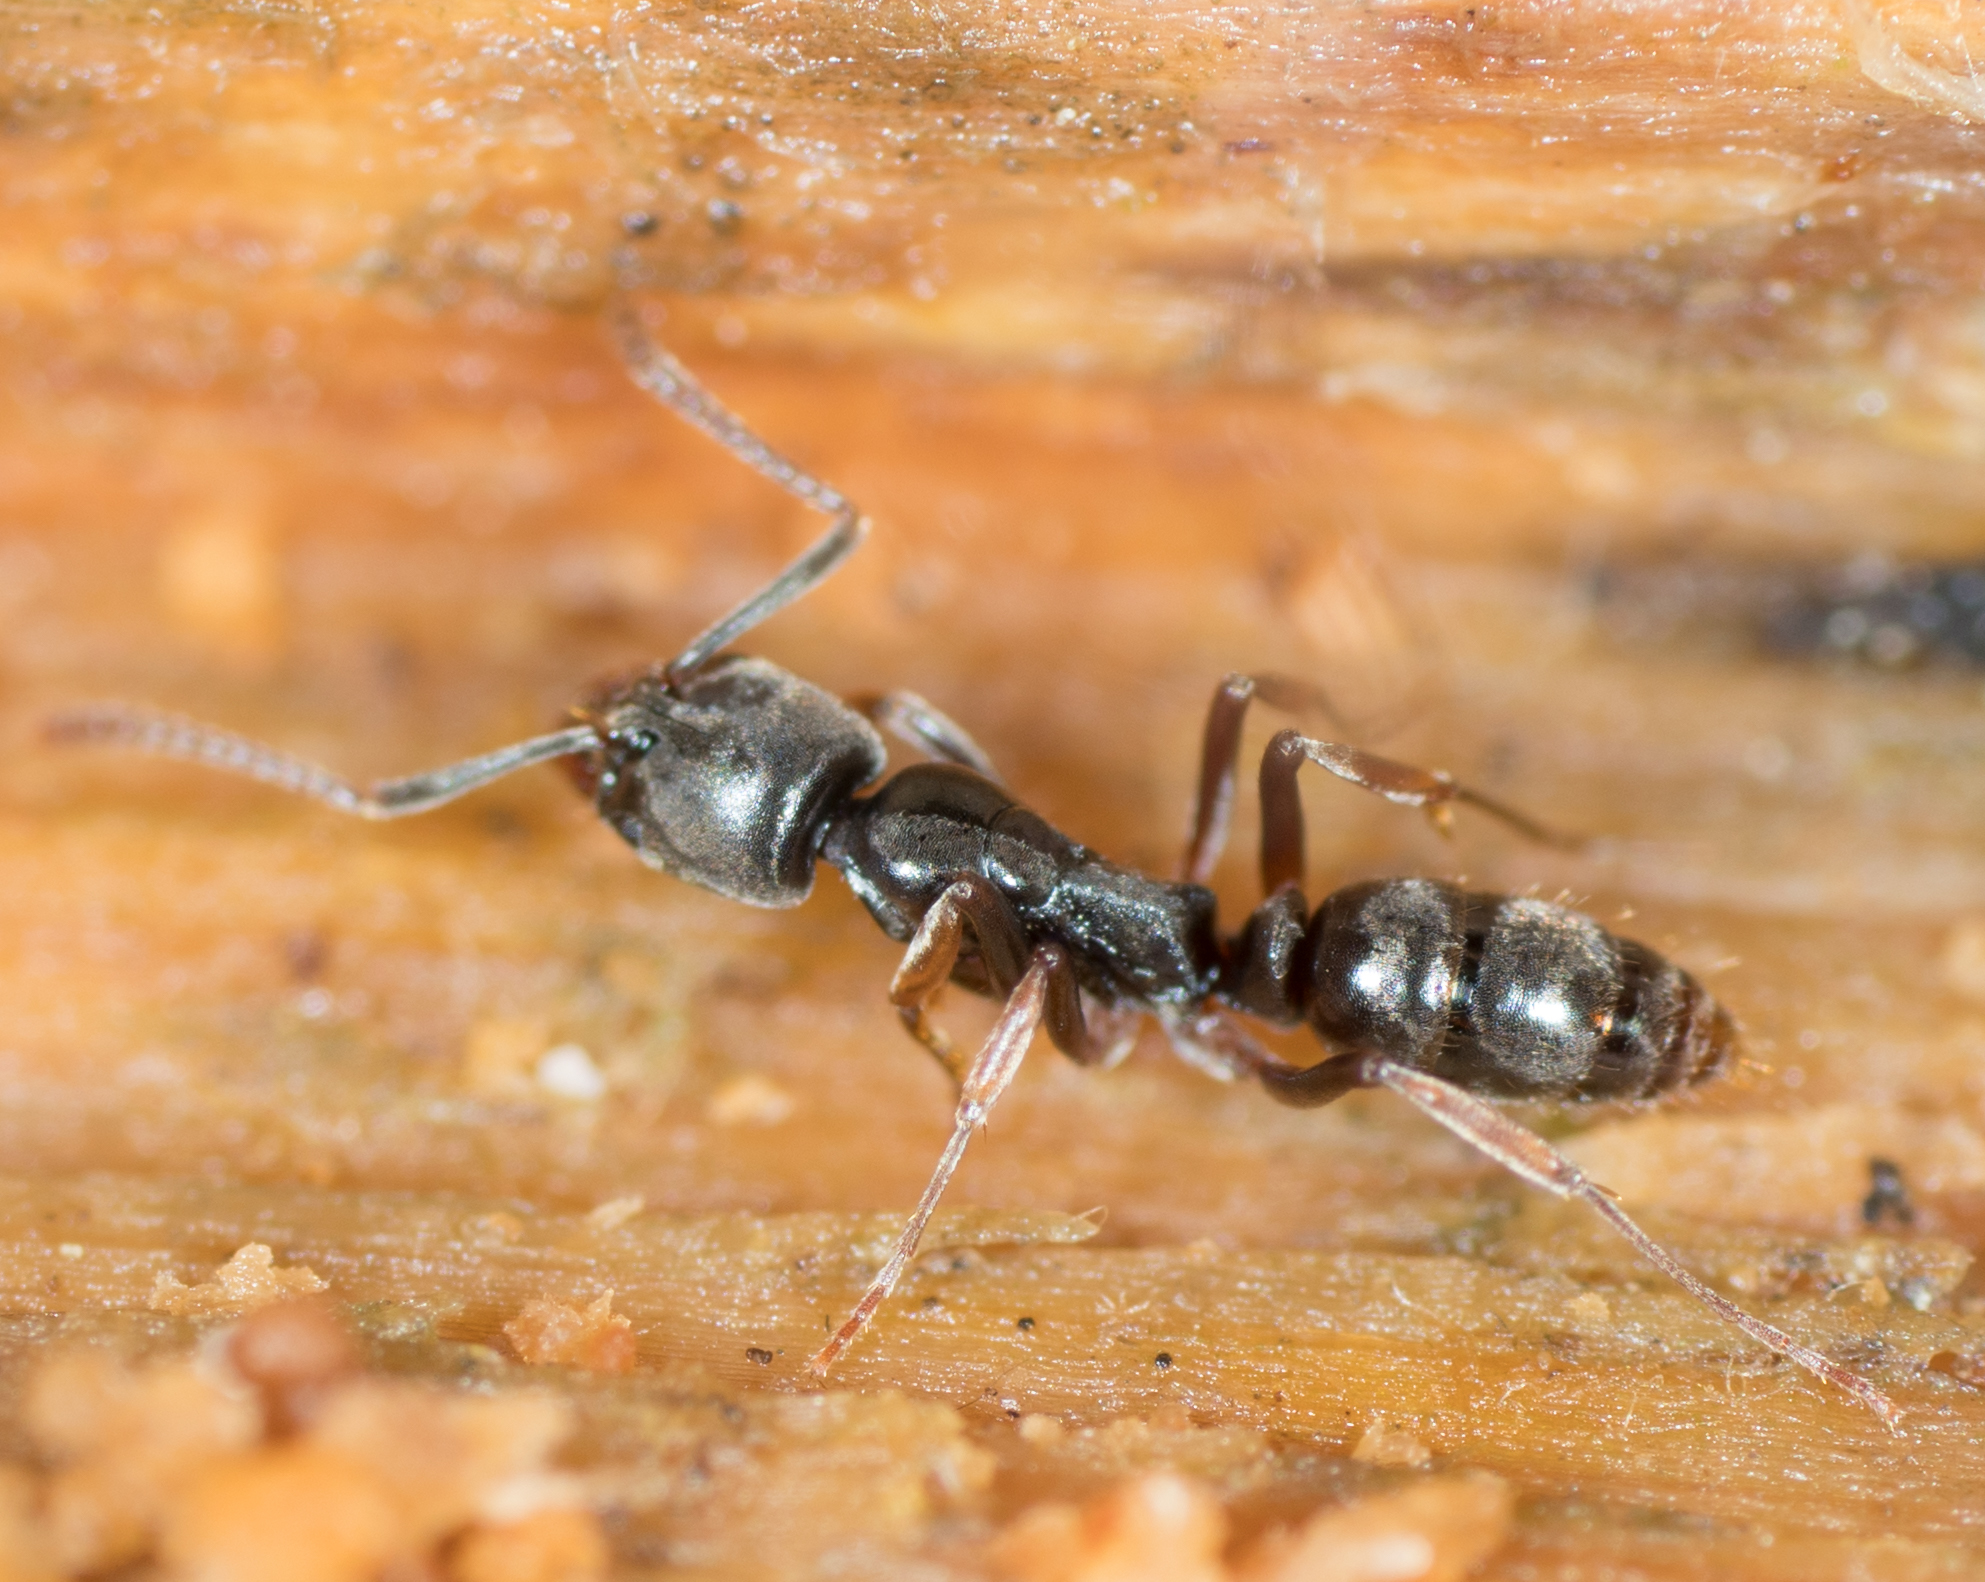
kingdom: Animalia
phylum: Arthropoda
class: Insecta
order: Hymenoptera
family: Formicidae
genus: Pachycondyla
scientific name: Pachycondyla chinensis
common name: Asian needle ant
